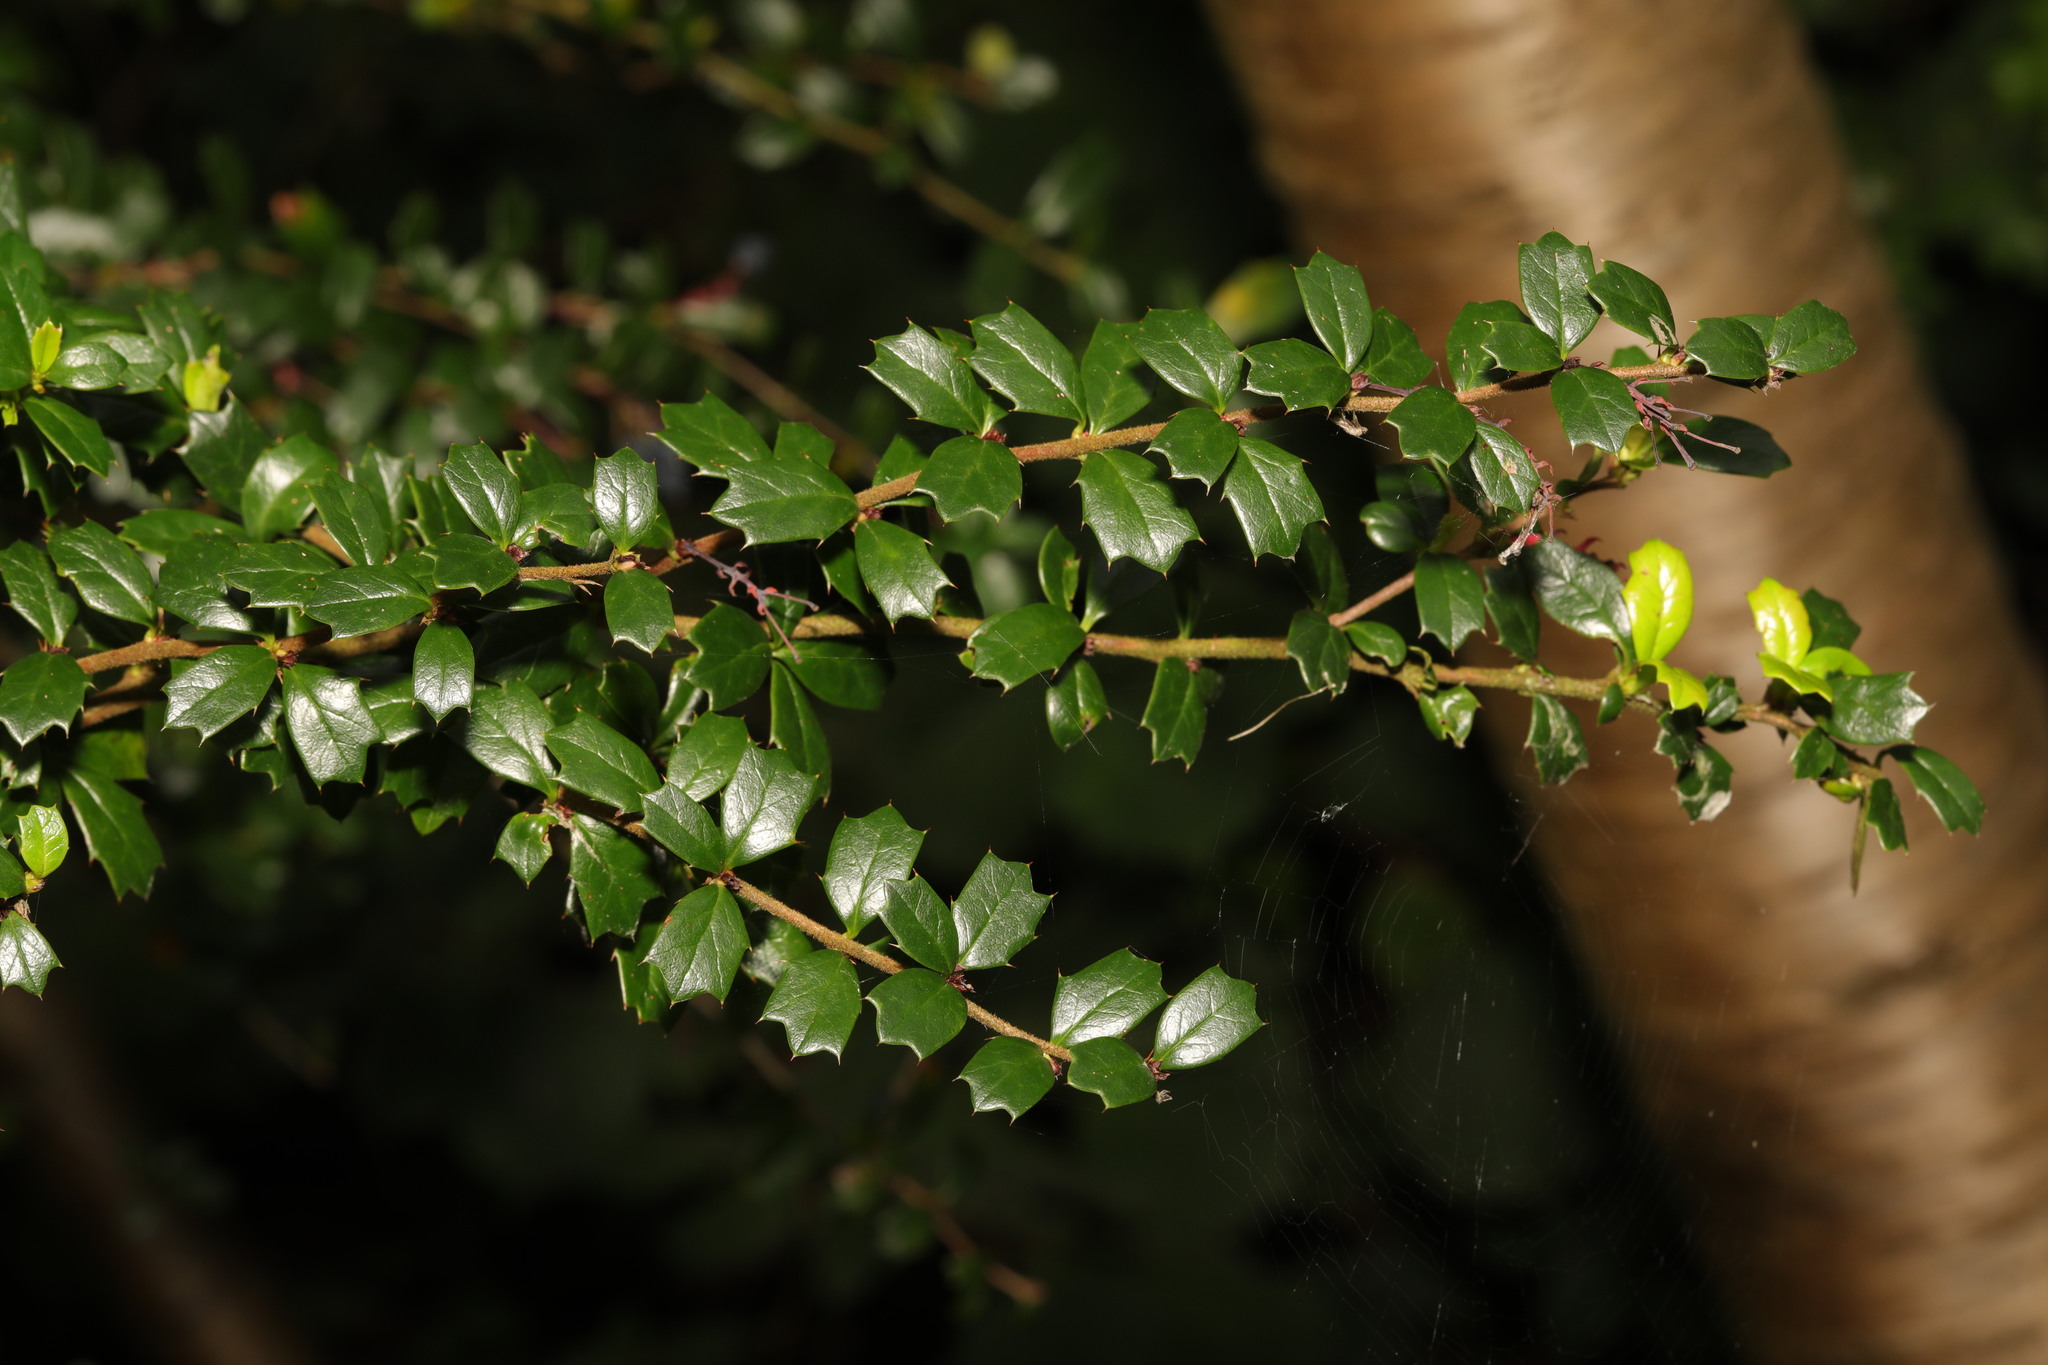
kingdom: Plantae
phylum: Tracheophyta
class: Magnoliopsida
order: Ranunculales
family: Berberidaceae
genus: Berberis
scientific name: Berberis darwinii
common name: Darwin's barberry
